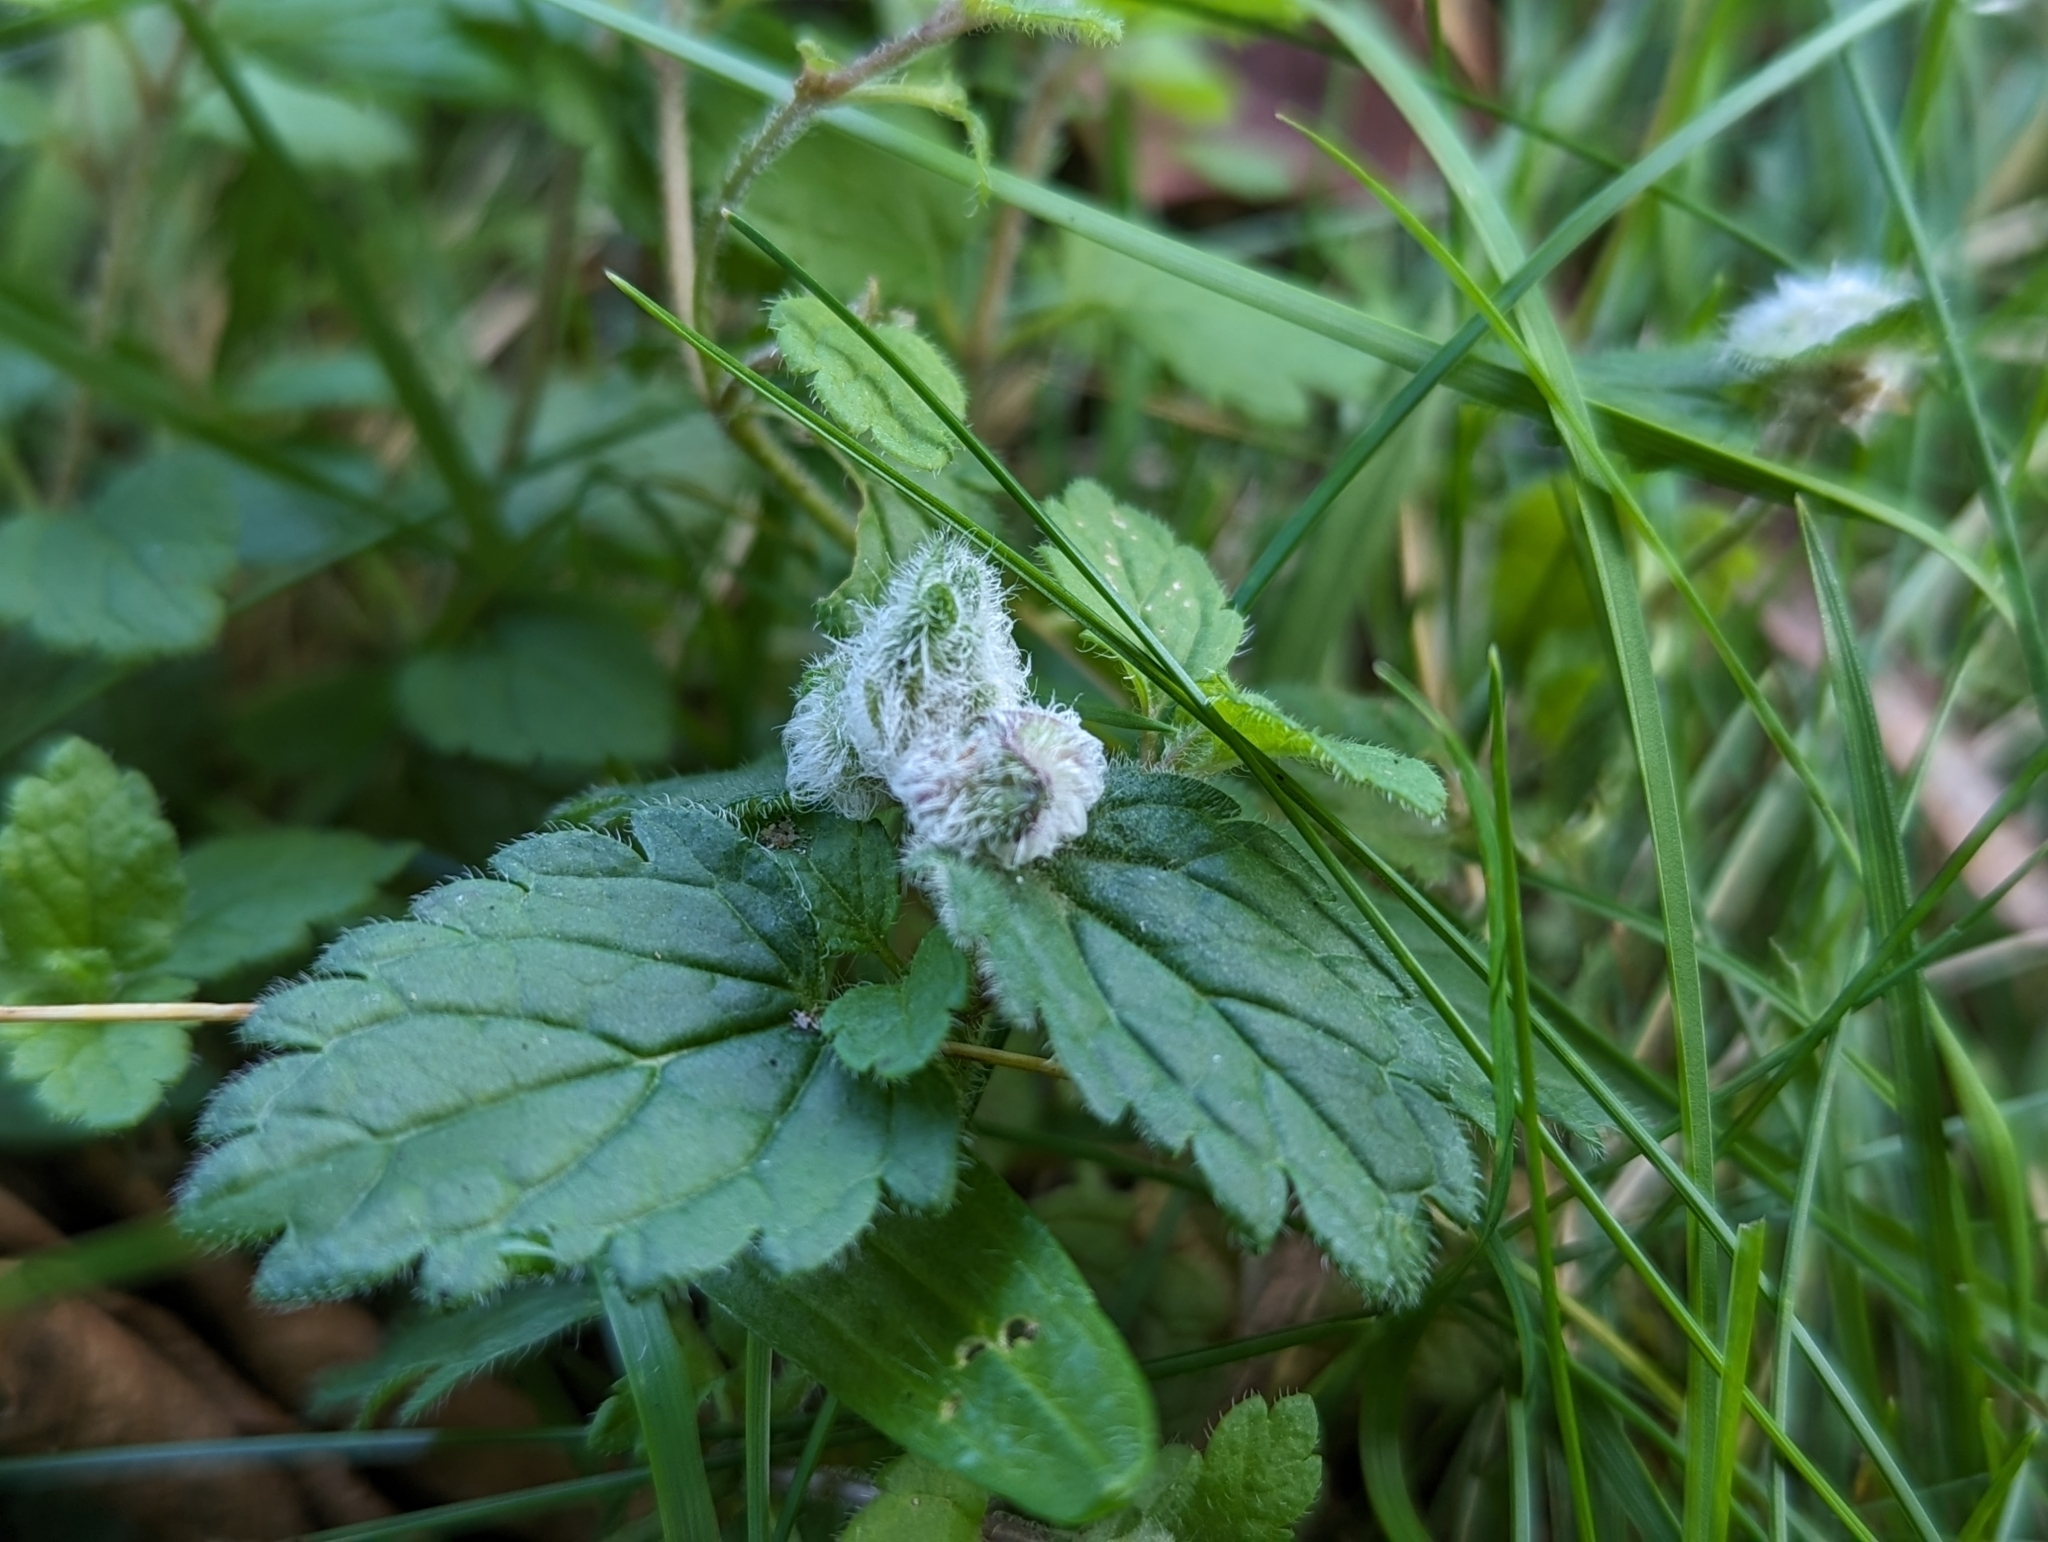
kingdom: Animalia
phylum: Arthropoda
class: Insecta
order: Diptera
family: Cecidomyiidae
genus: Jaapiella
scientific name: Jaapiella veronicae
